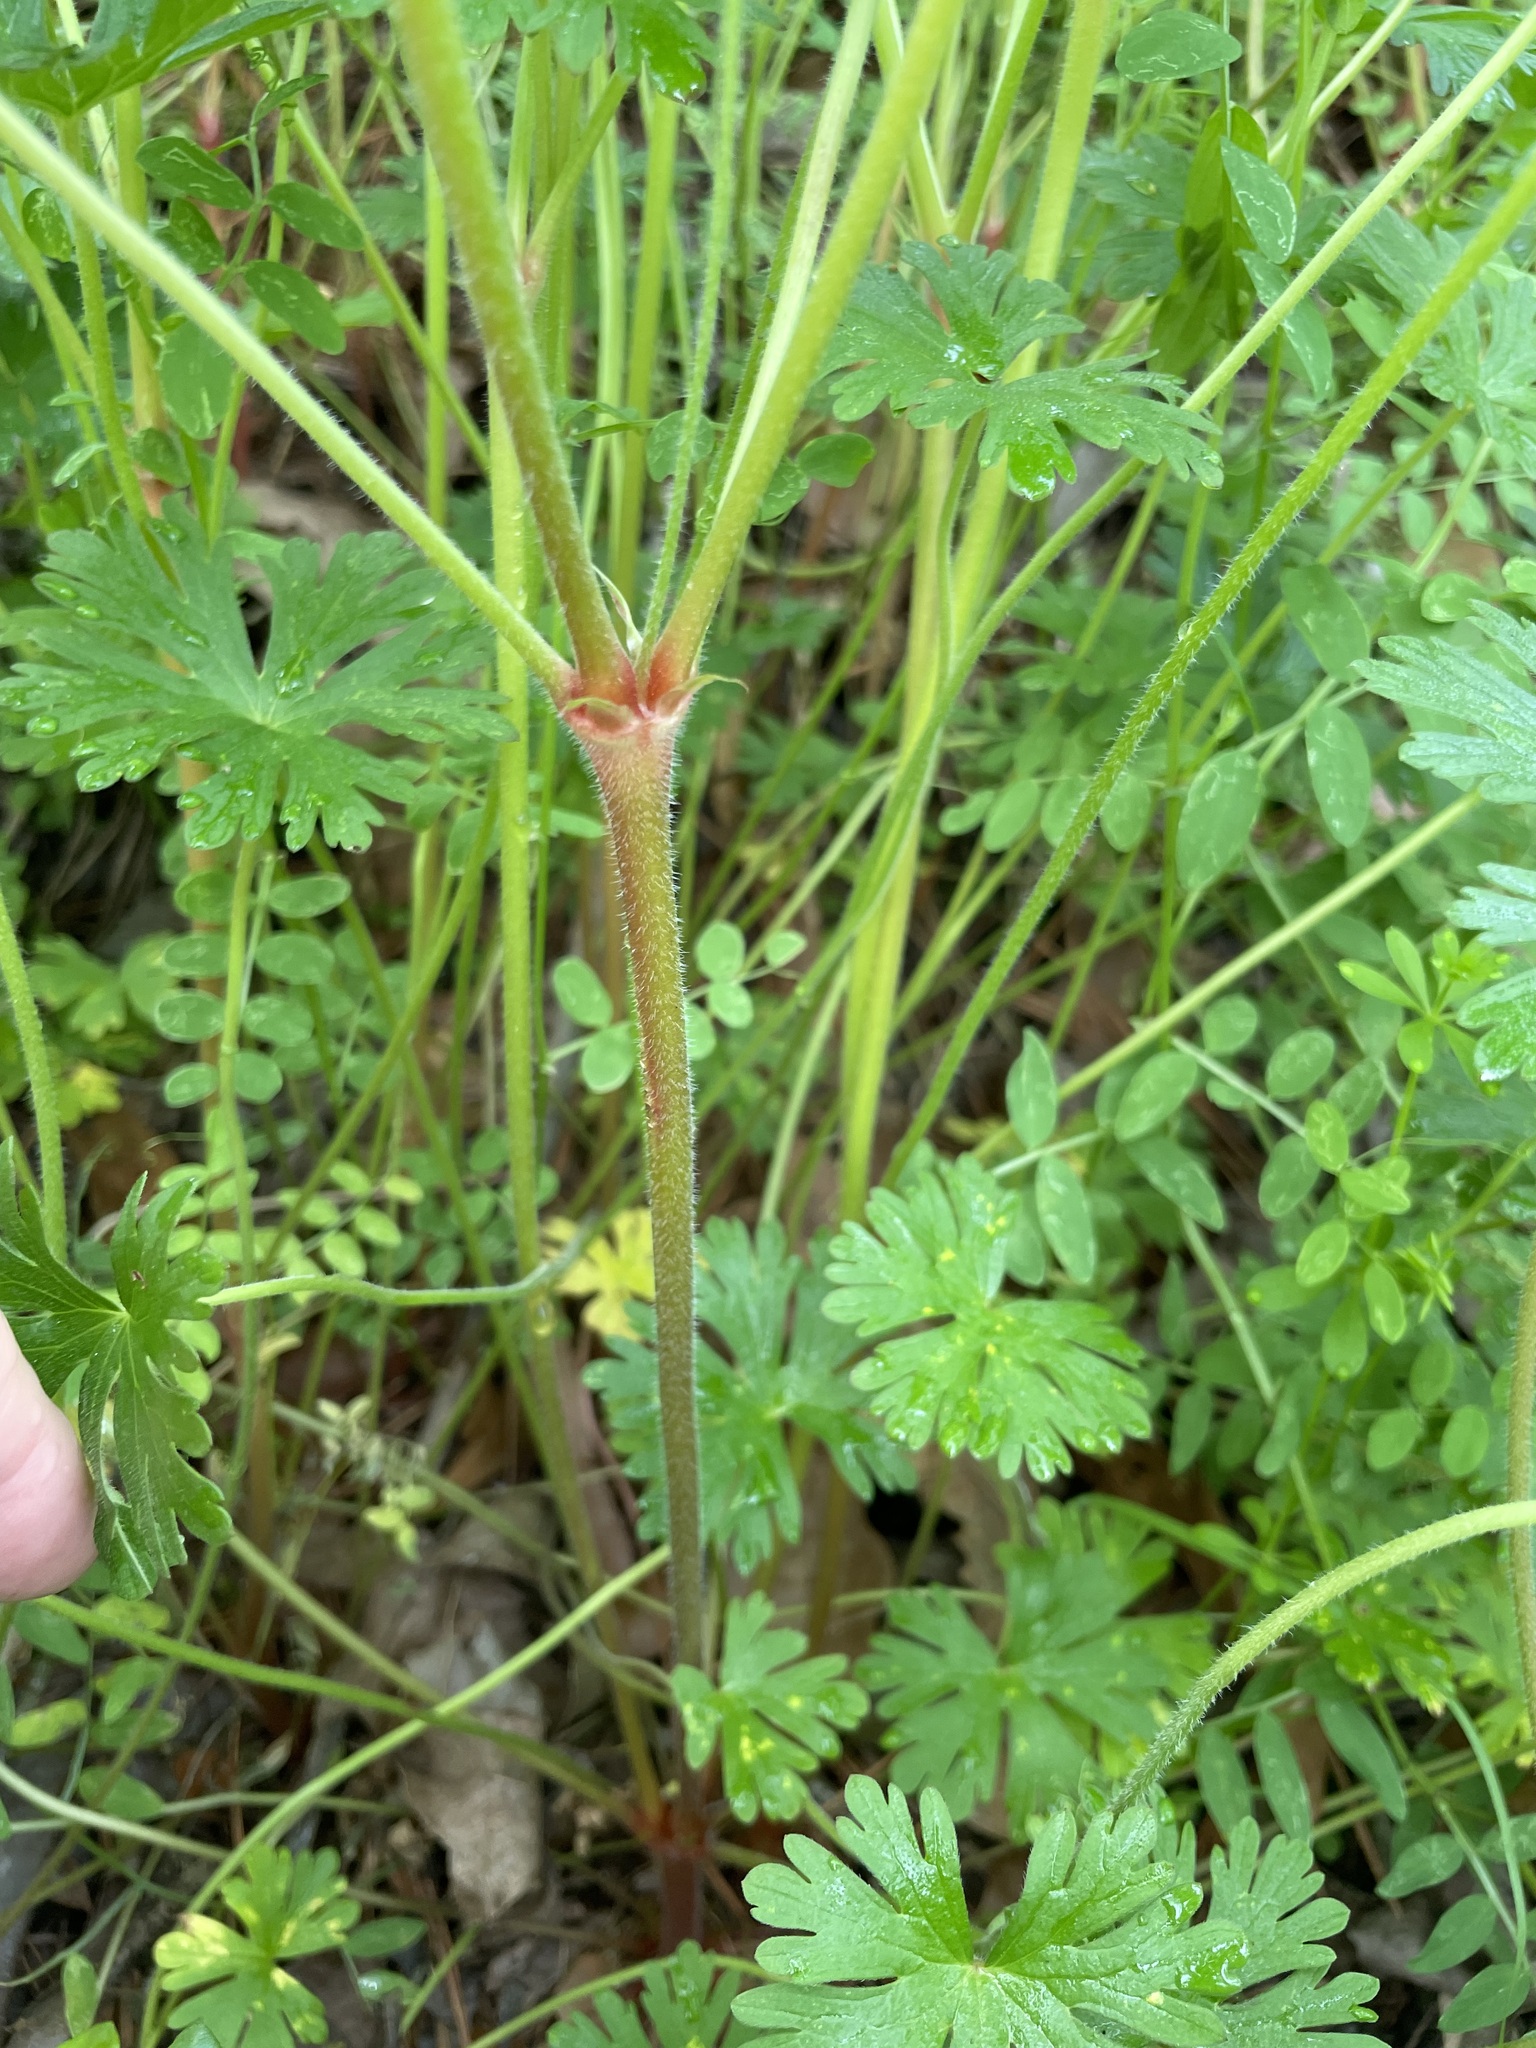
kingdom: Plantae
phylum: Tracheophyta
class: Magnoliopsida
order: Geraniales
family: Geraniaceae
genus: Geranium
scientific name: Geranium carolinianum
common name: Carolina crane's-bill
